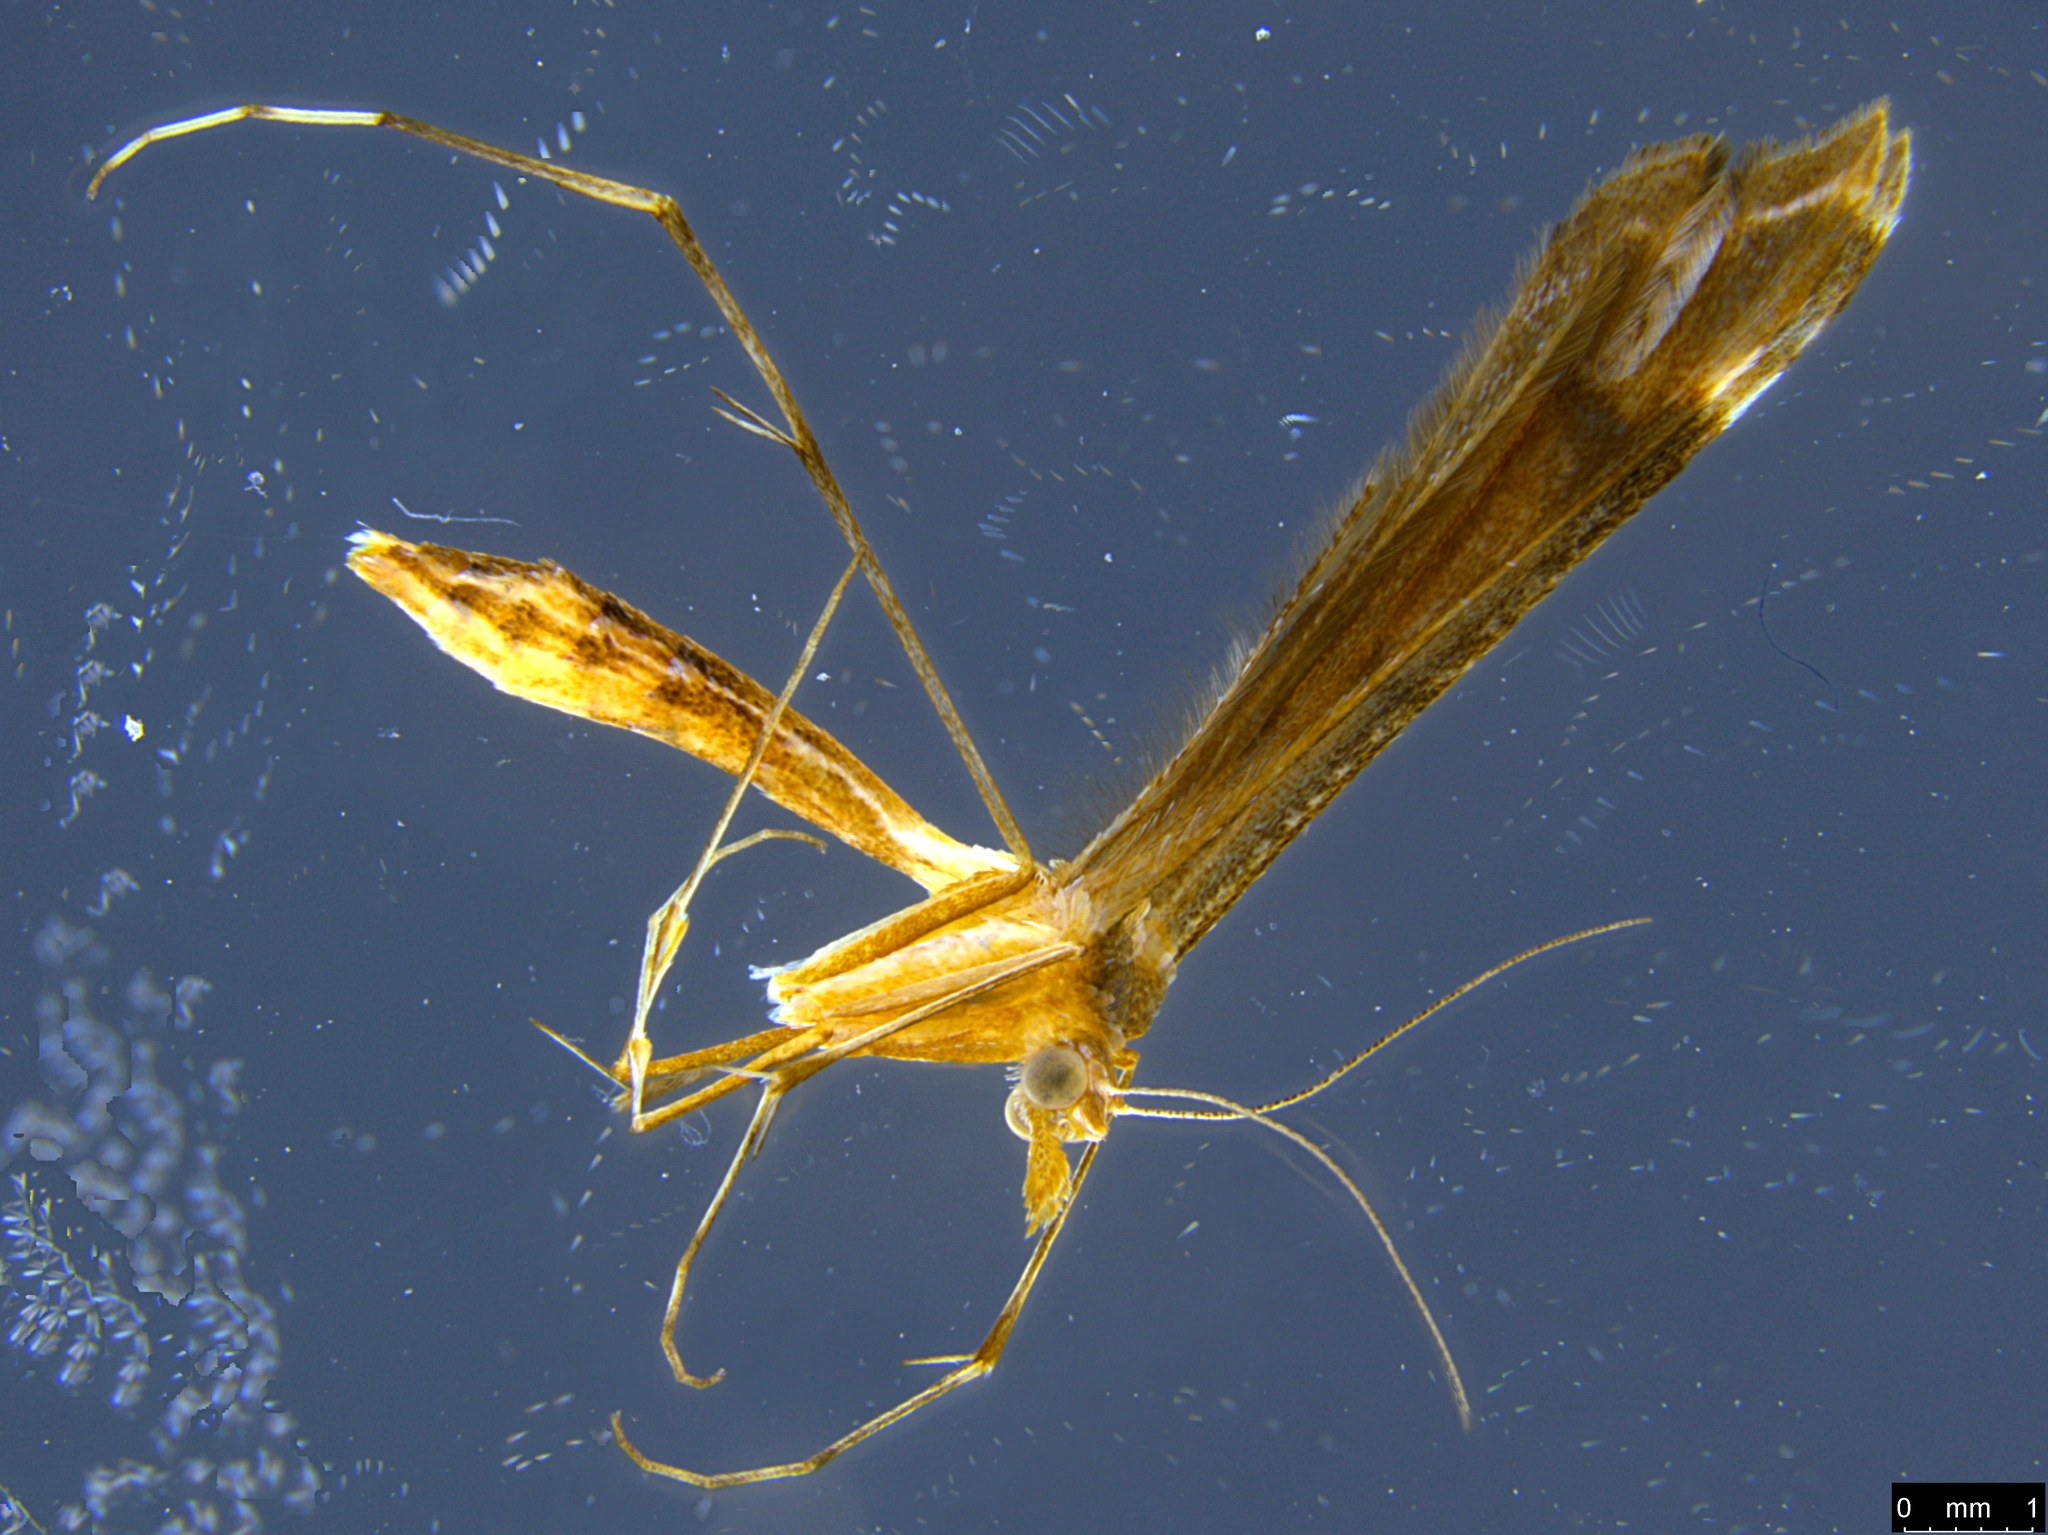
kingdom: Animalia
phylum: Arthropoda
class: Insecta
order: Lepidoptera
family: Pterophoridae
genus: Sinpunctiptilia
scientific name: Sinpunctiptilia emissalis
